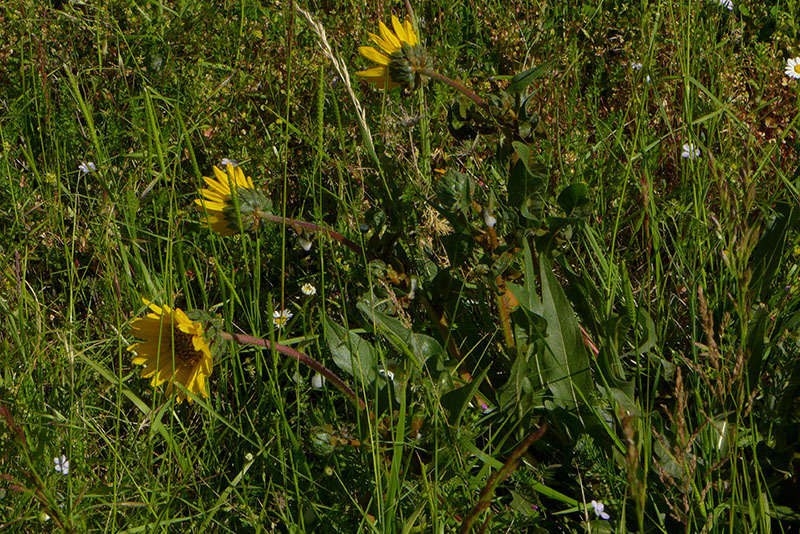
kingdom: Plantae
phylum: Tracheophyta
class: Magnoliopsida
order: Asterales
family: Asteraceae
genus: Wyethia
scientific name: Wyethia angustifolia
